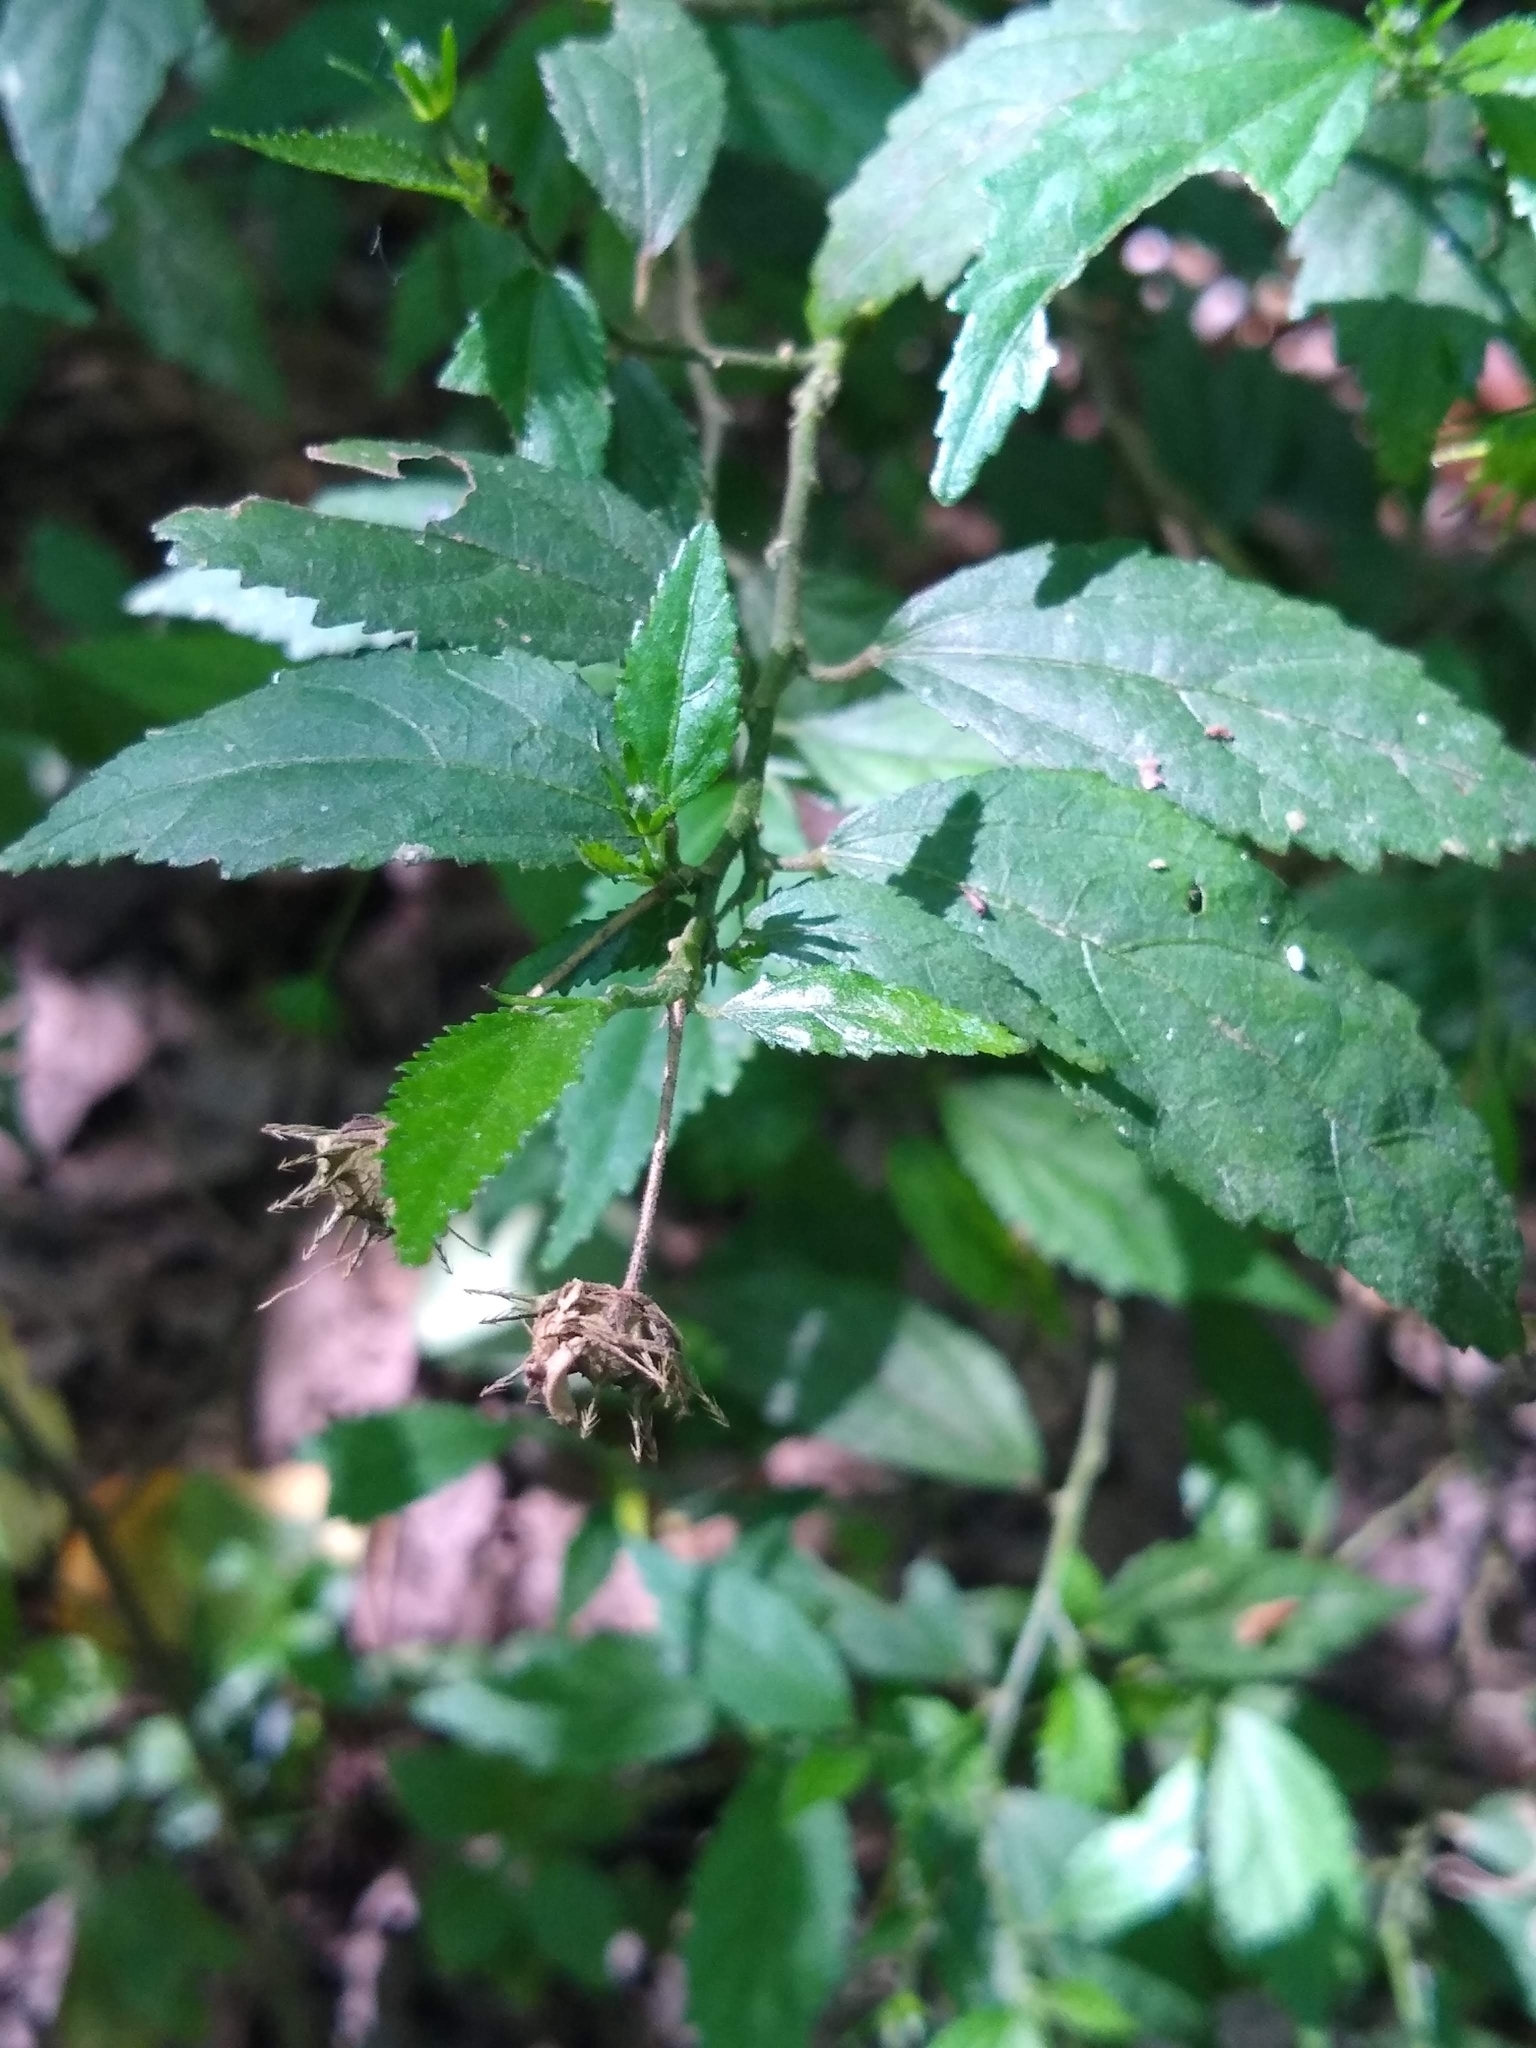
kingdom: Plantae
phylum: Tracheophyta
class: Magnoliopsida
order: Malvales
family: Malvaceae
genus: Pavonia
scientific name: Pavonia sepium
